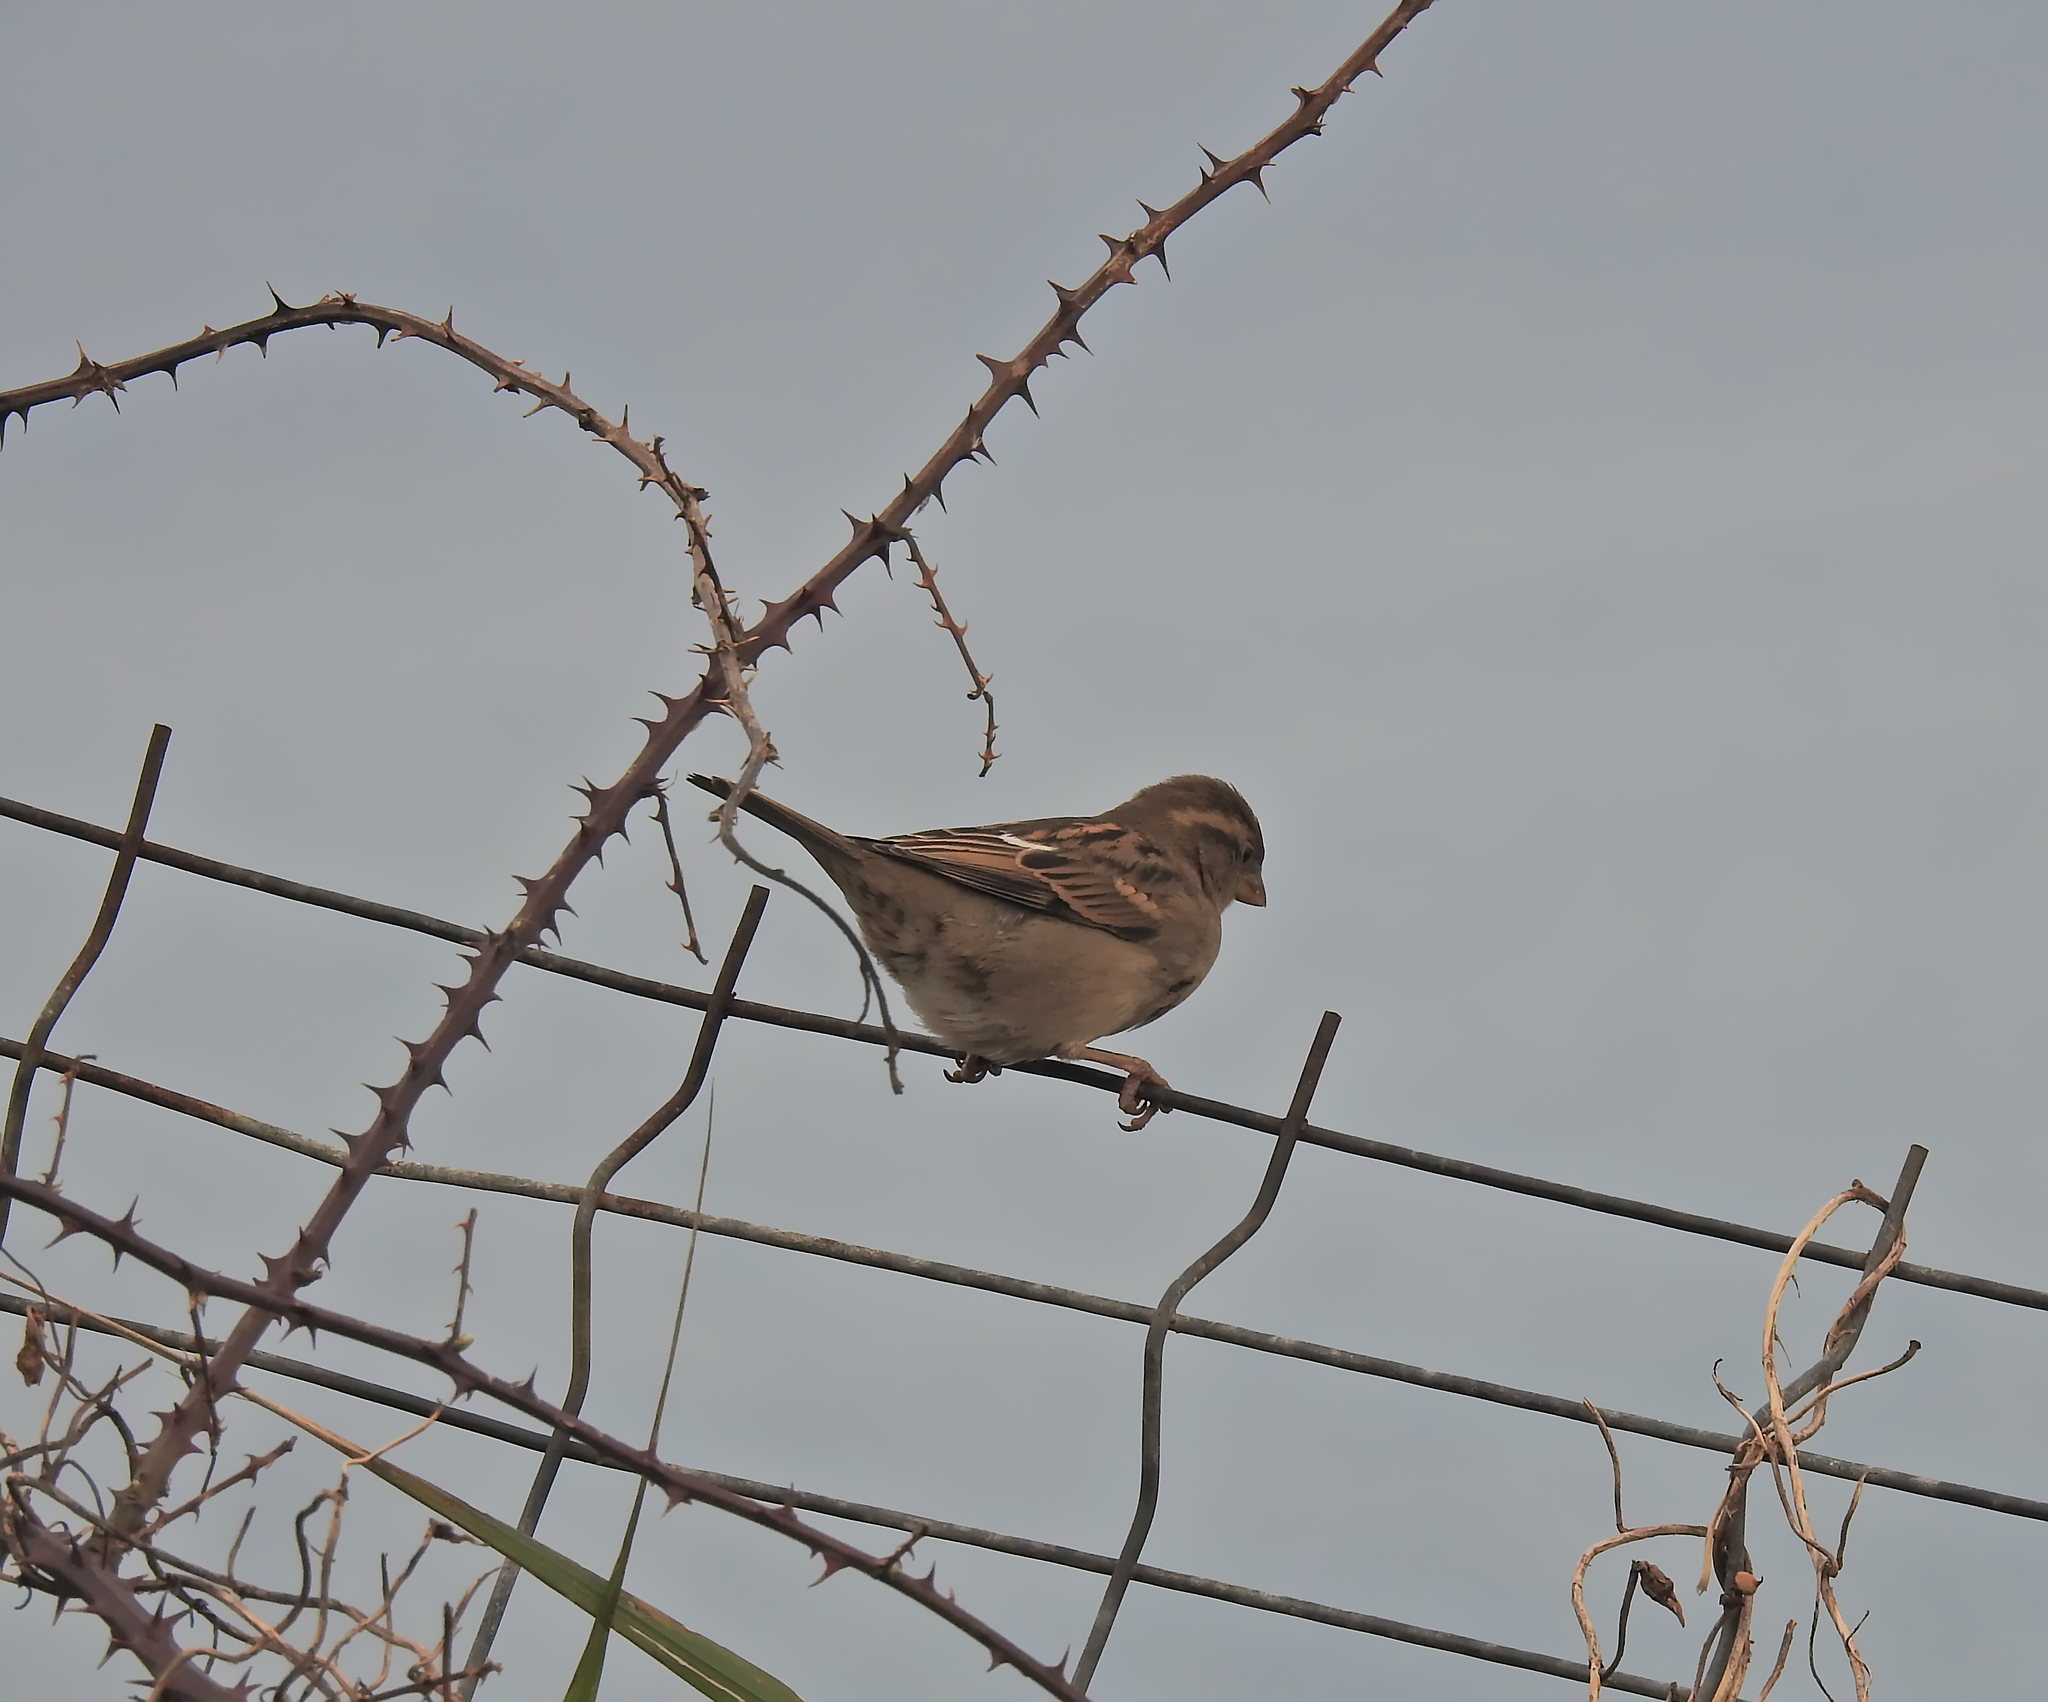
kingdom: Animalia
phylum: Chordata
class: Aves
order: Passeriformes
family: Passeridae
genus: Passer
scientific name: Passer domesticus
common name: House sparrow
